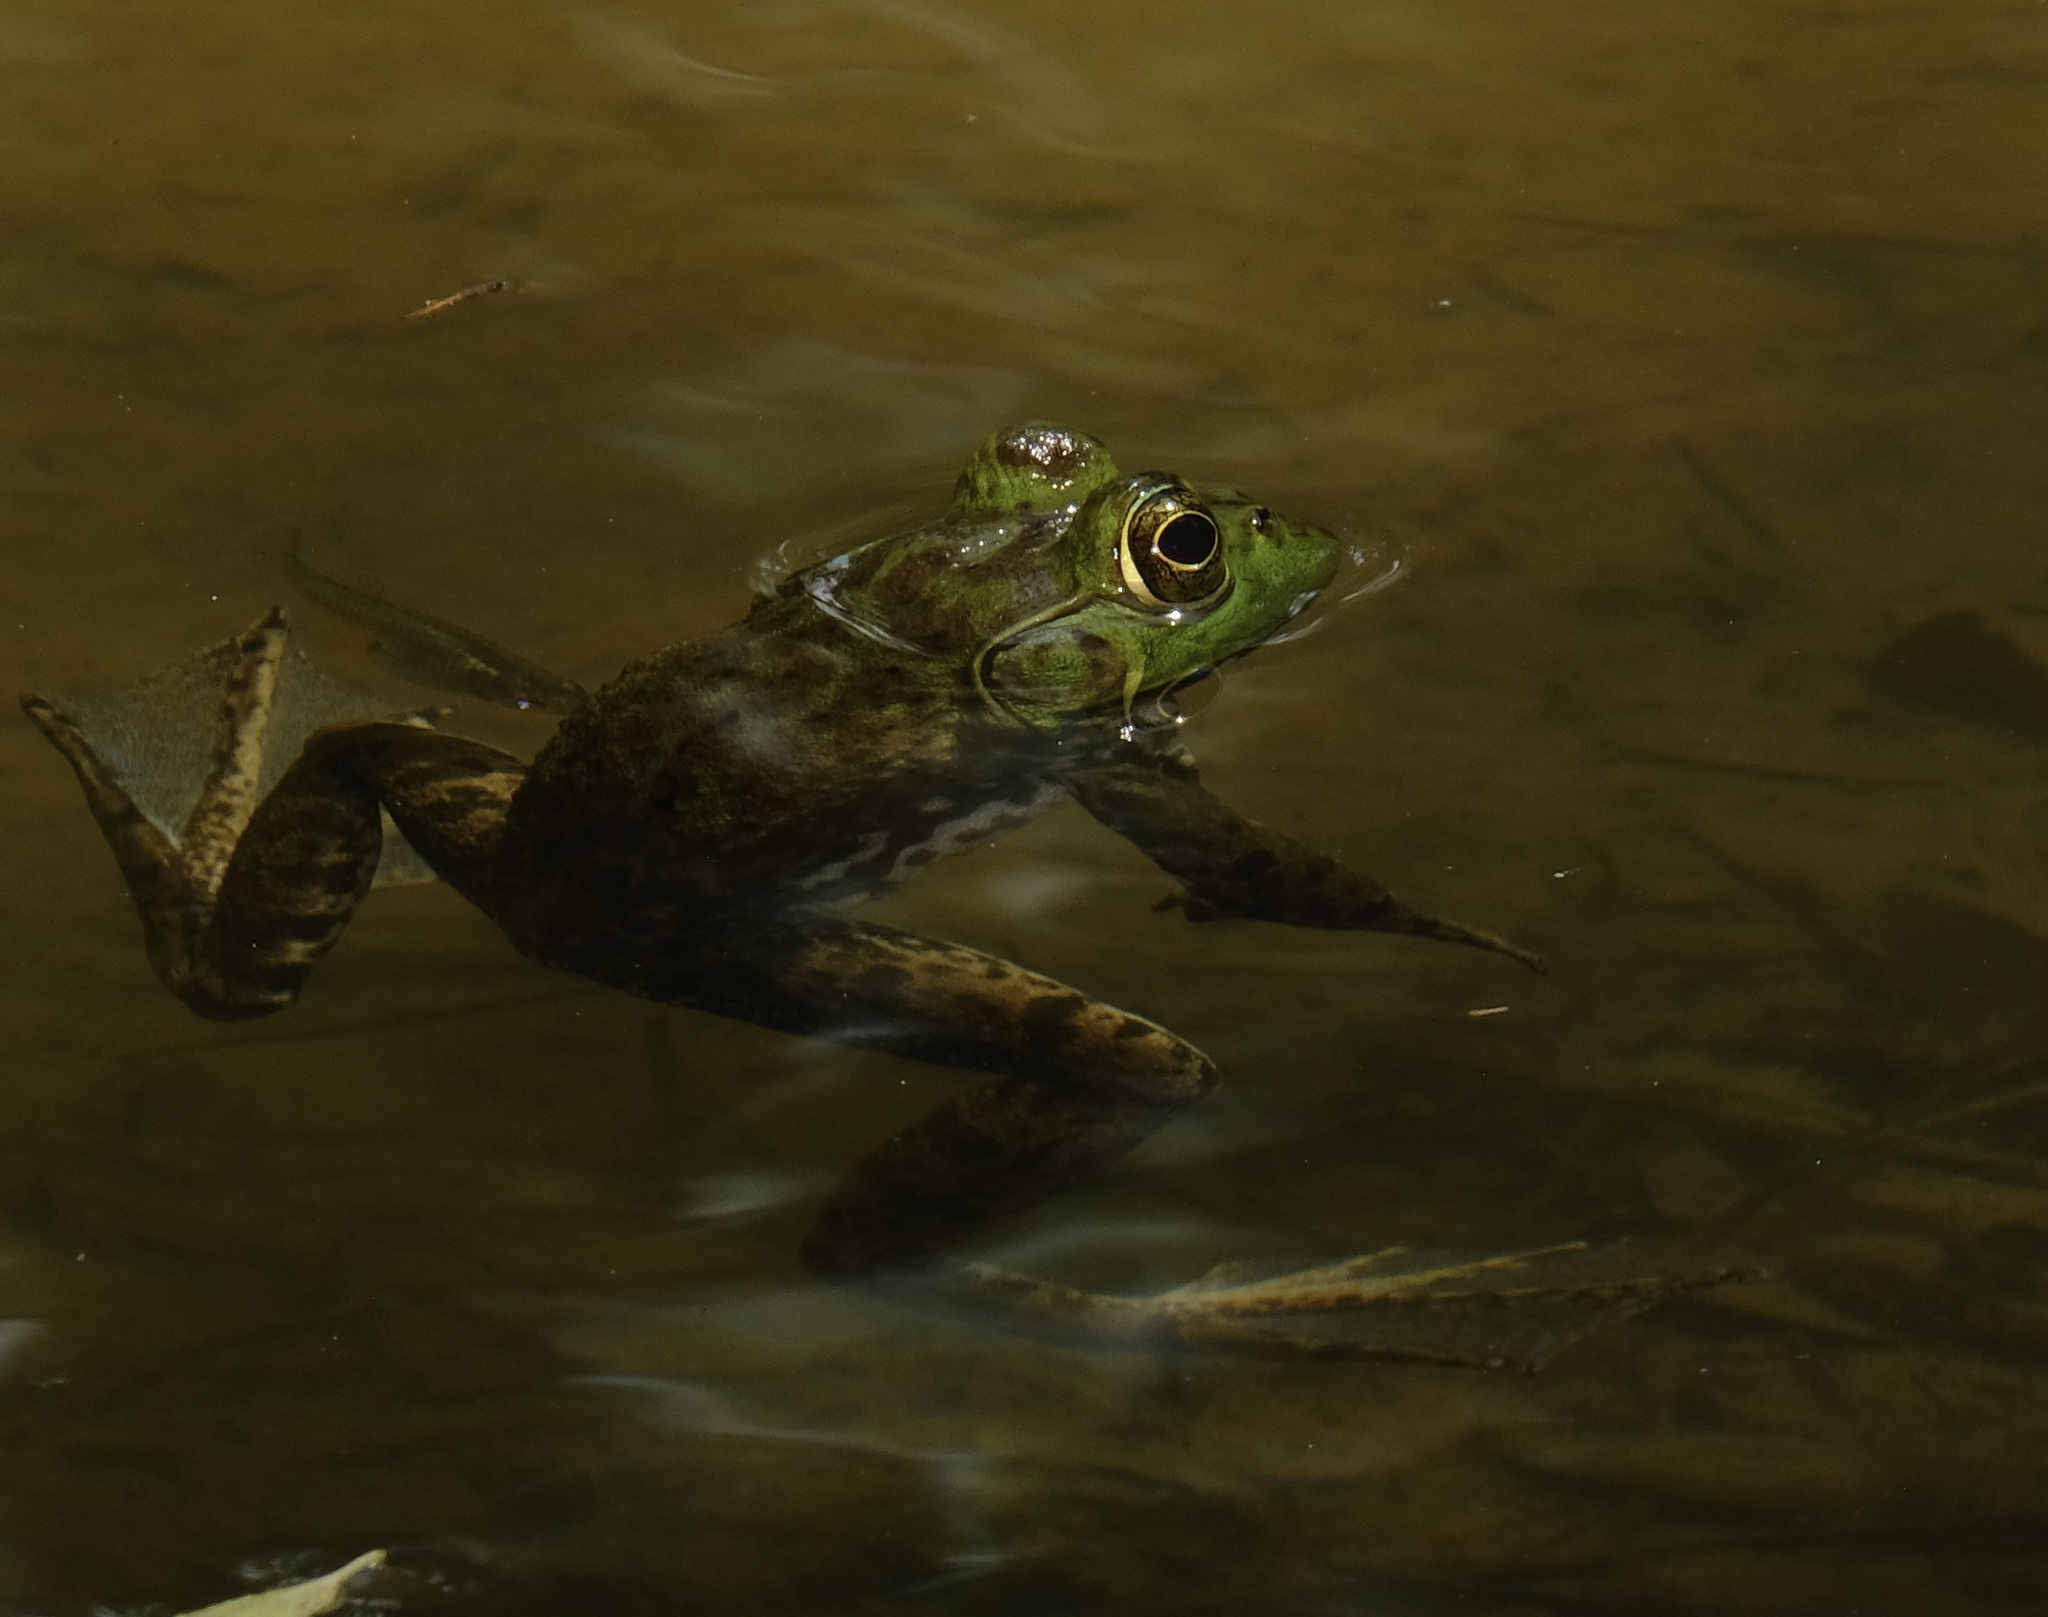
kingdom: Animalia
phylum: Chordata
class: Amphibia
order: Anura
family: Ranidae
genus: Lithobates
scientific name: Lithobates catesbeianus
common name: American bullfrog
